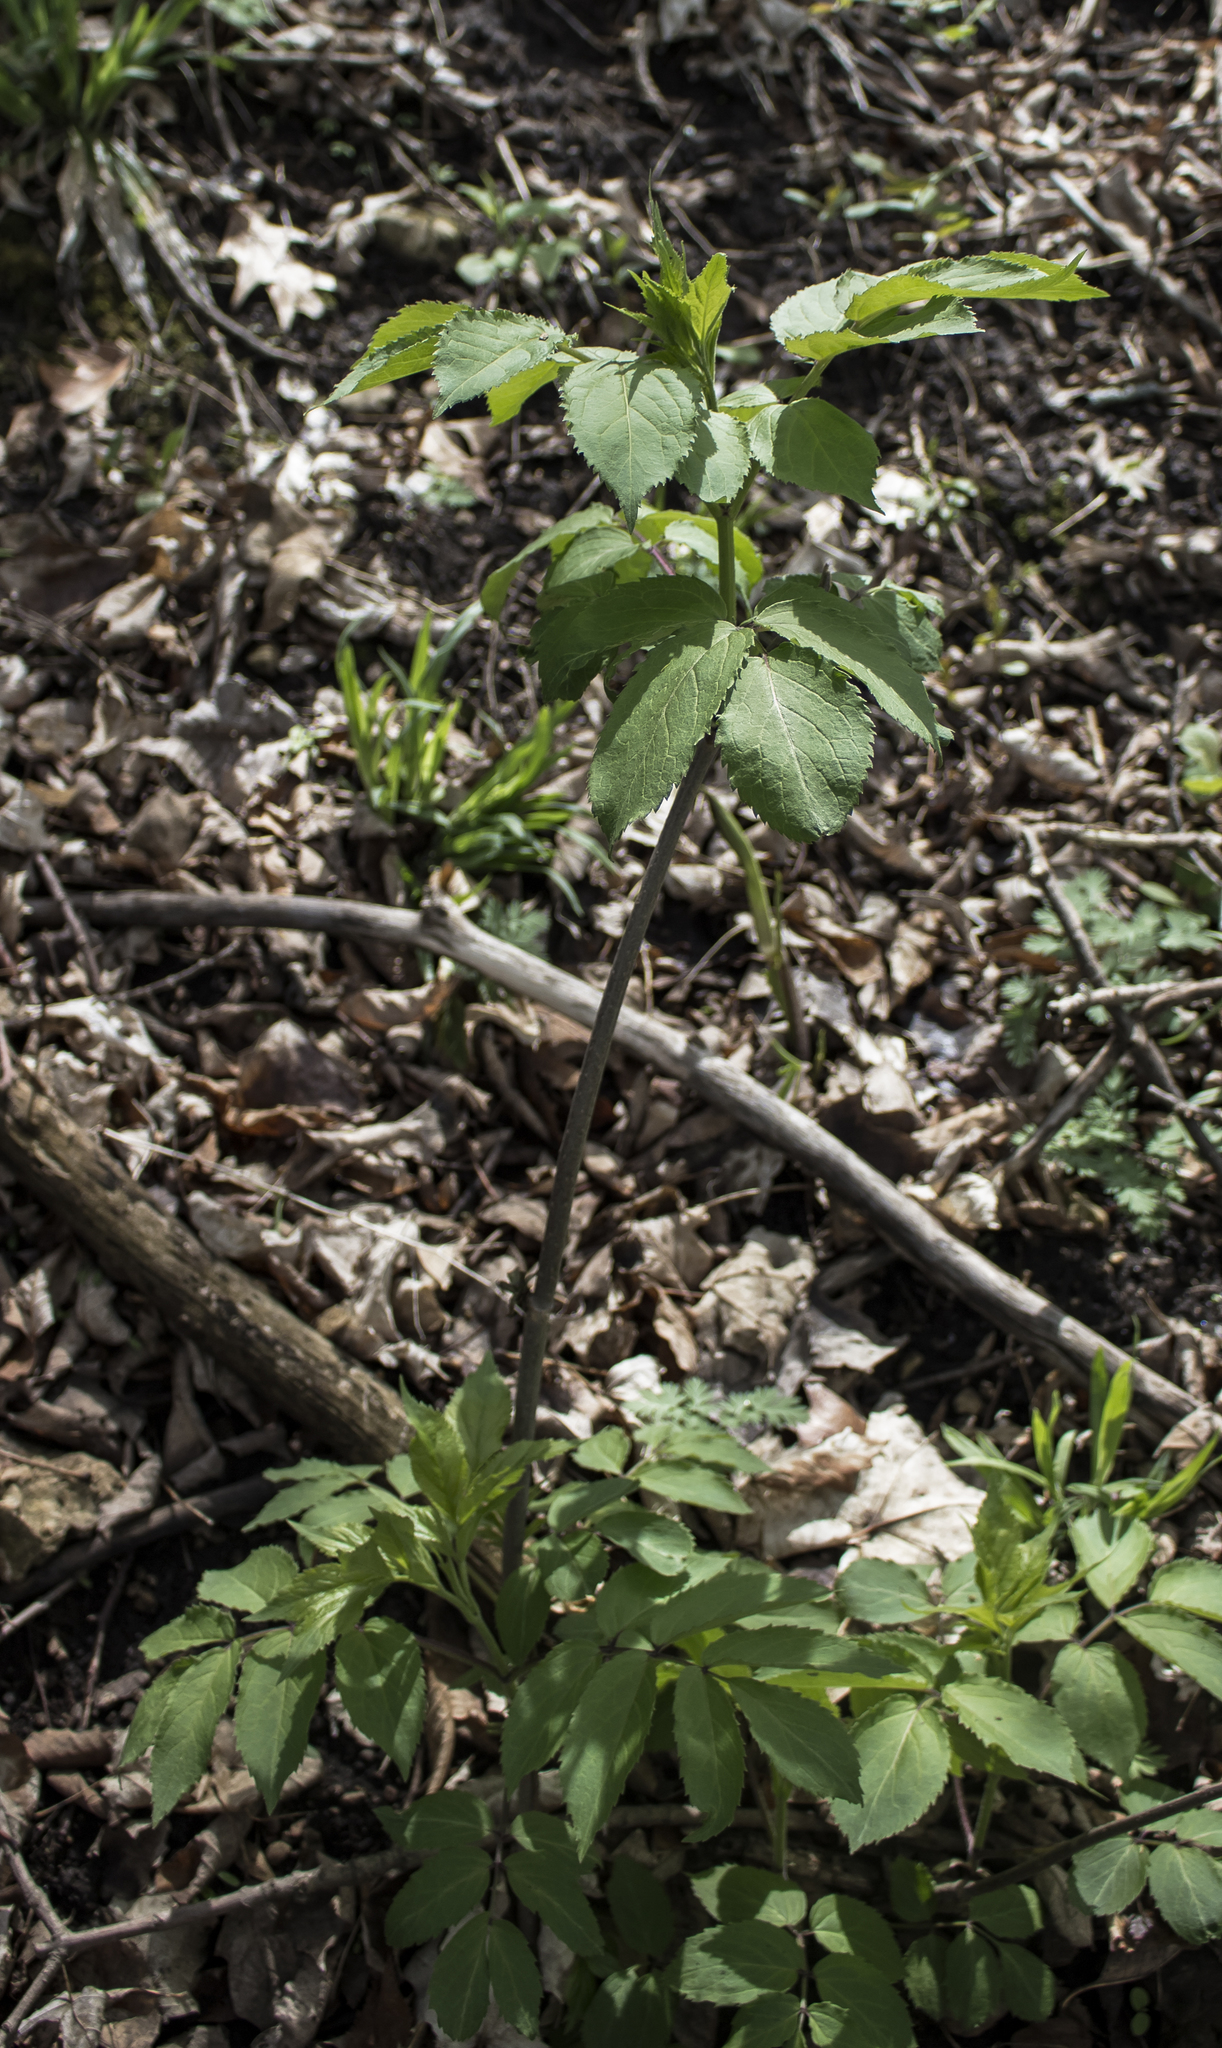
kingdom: Plantae
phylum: Tracheophyta
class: Magnoliopsida
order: Dipsacales
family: Viburnaceae
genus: Sambucus
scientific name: Sambucus racemosa
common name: Red-berried elder
